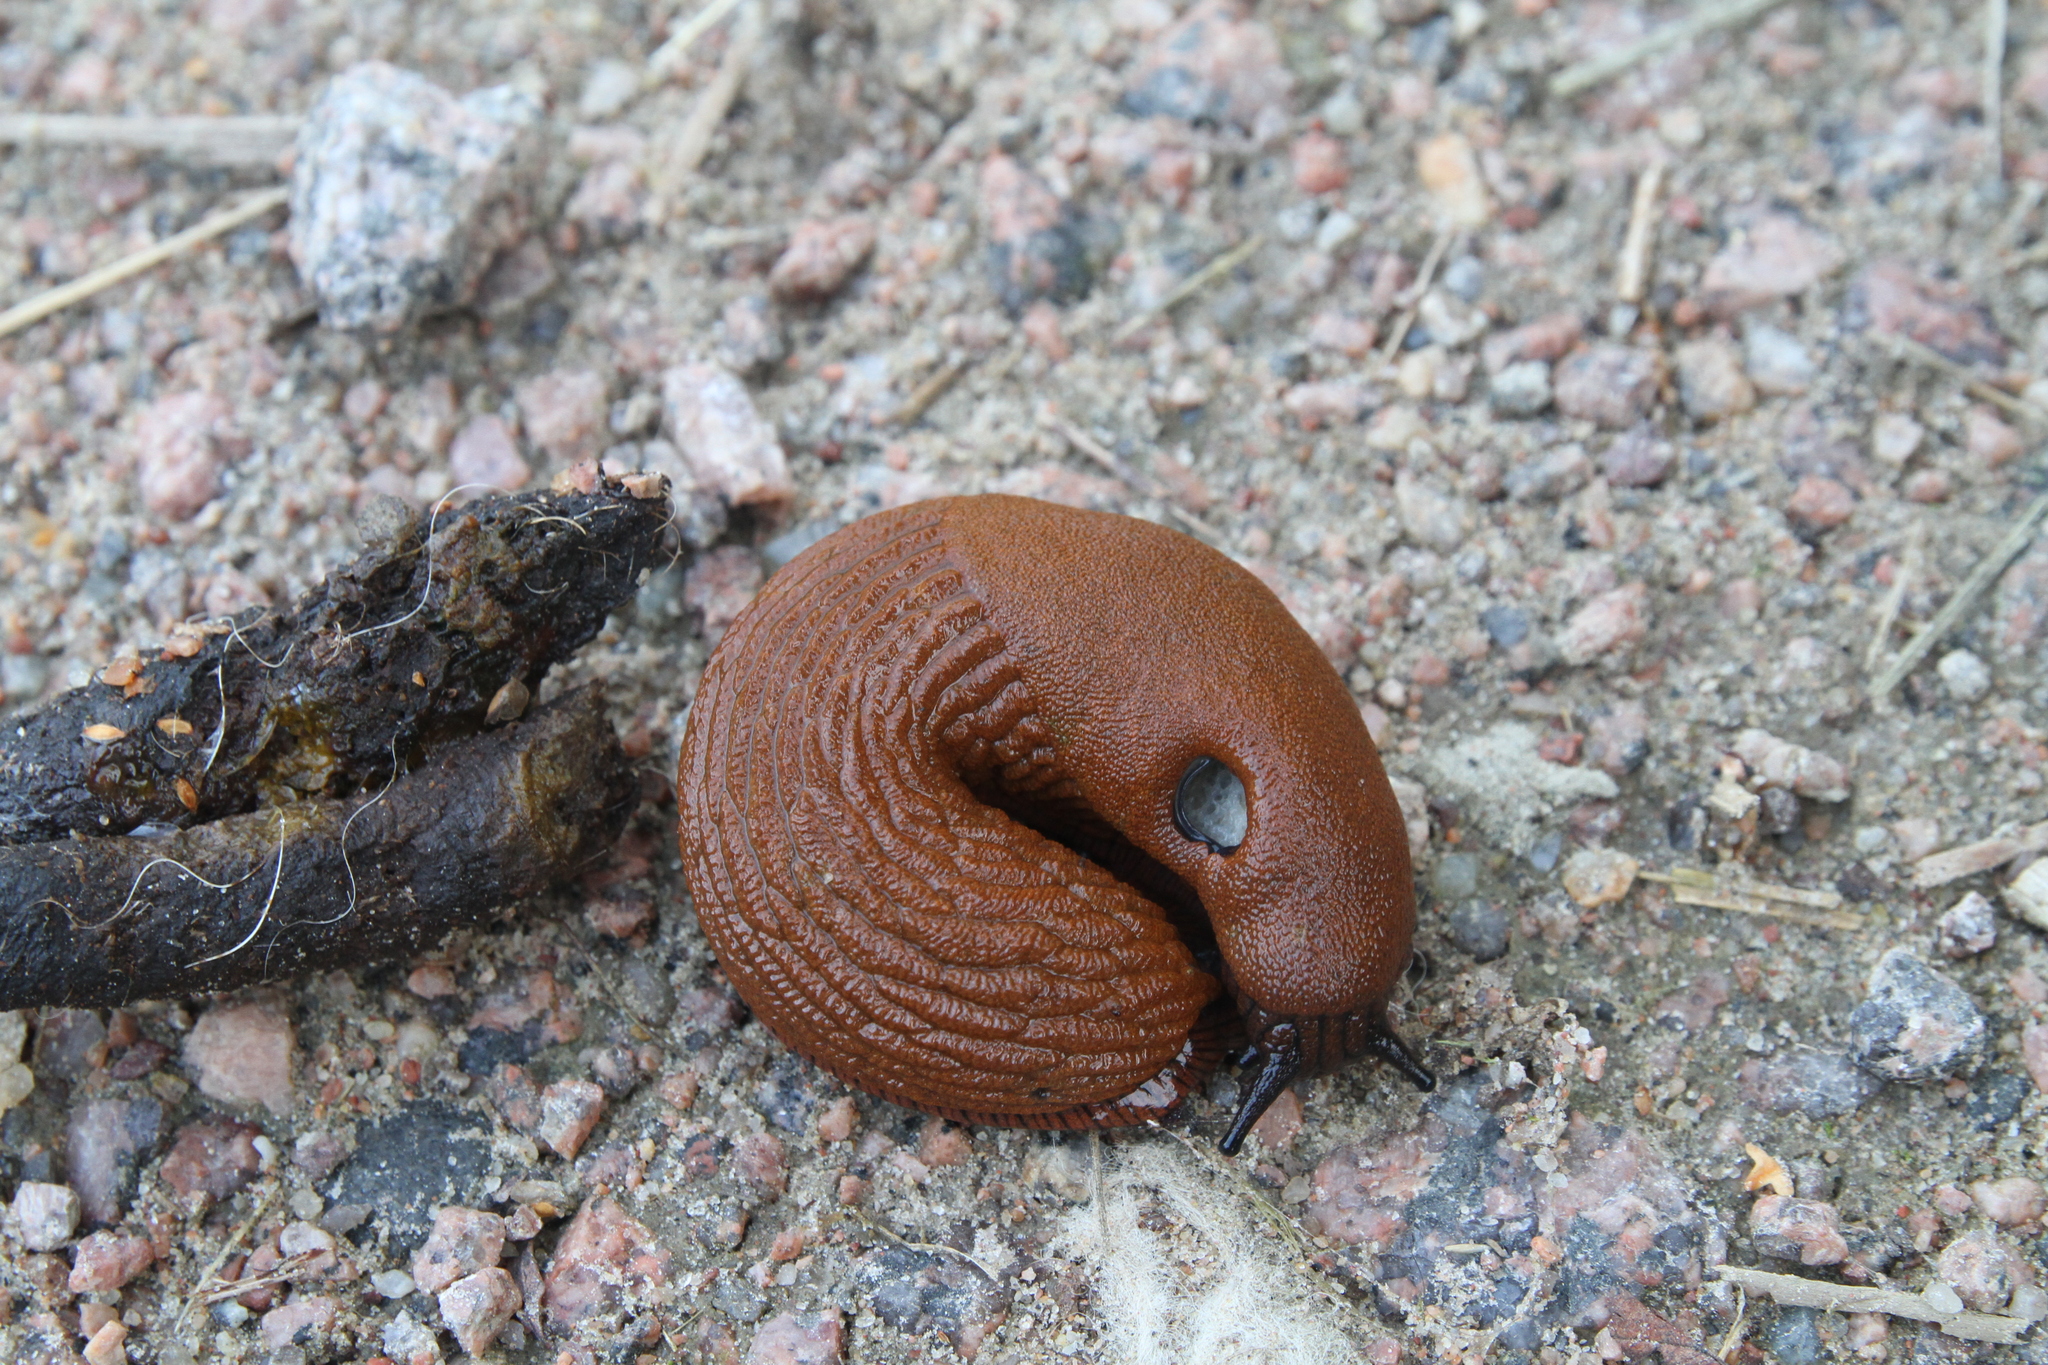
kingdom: Animalia
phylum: Mollusca
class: Gastropoda
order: Stylommatophora
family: Arionidae
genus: Arion
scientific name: Arion vulgaris
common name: Lusitanian slug
